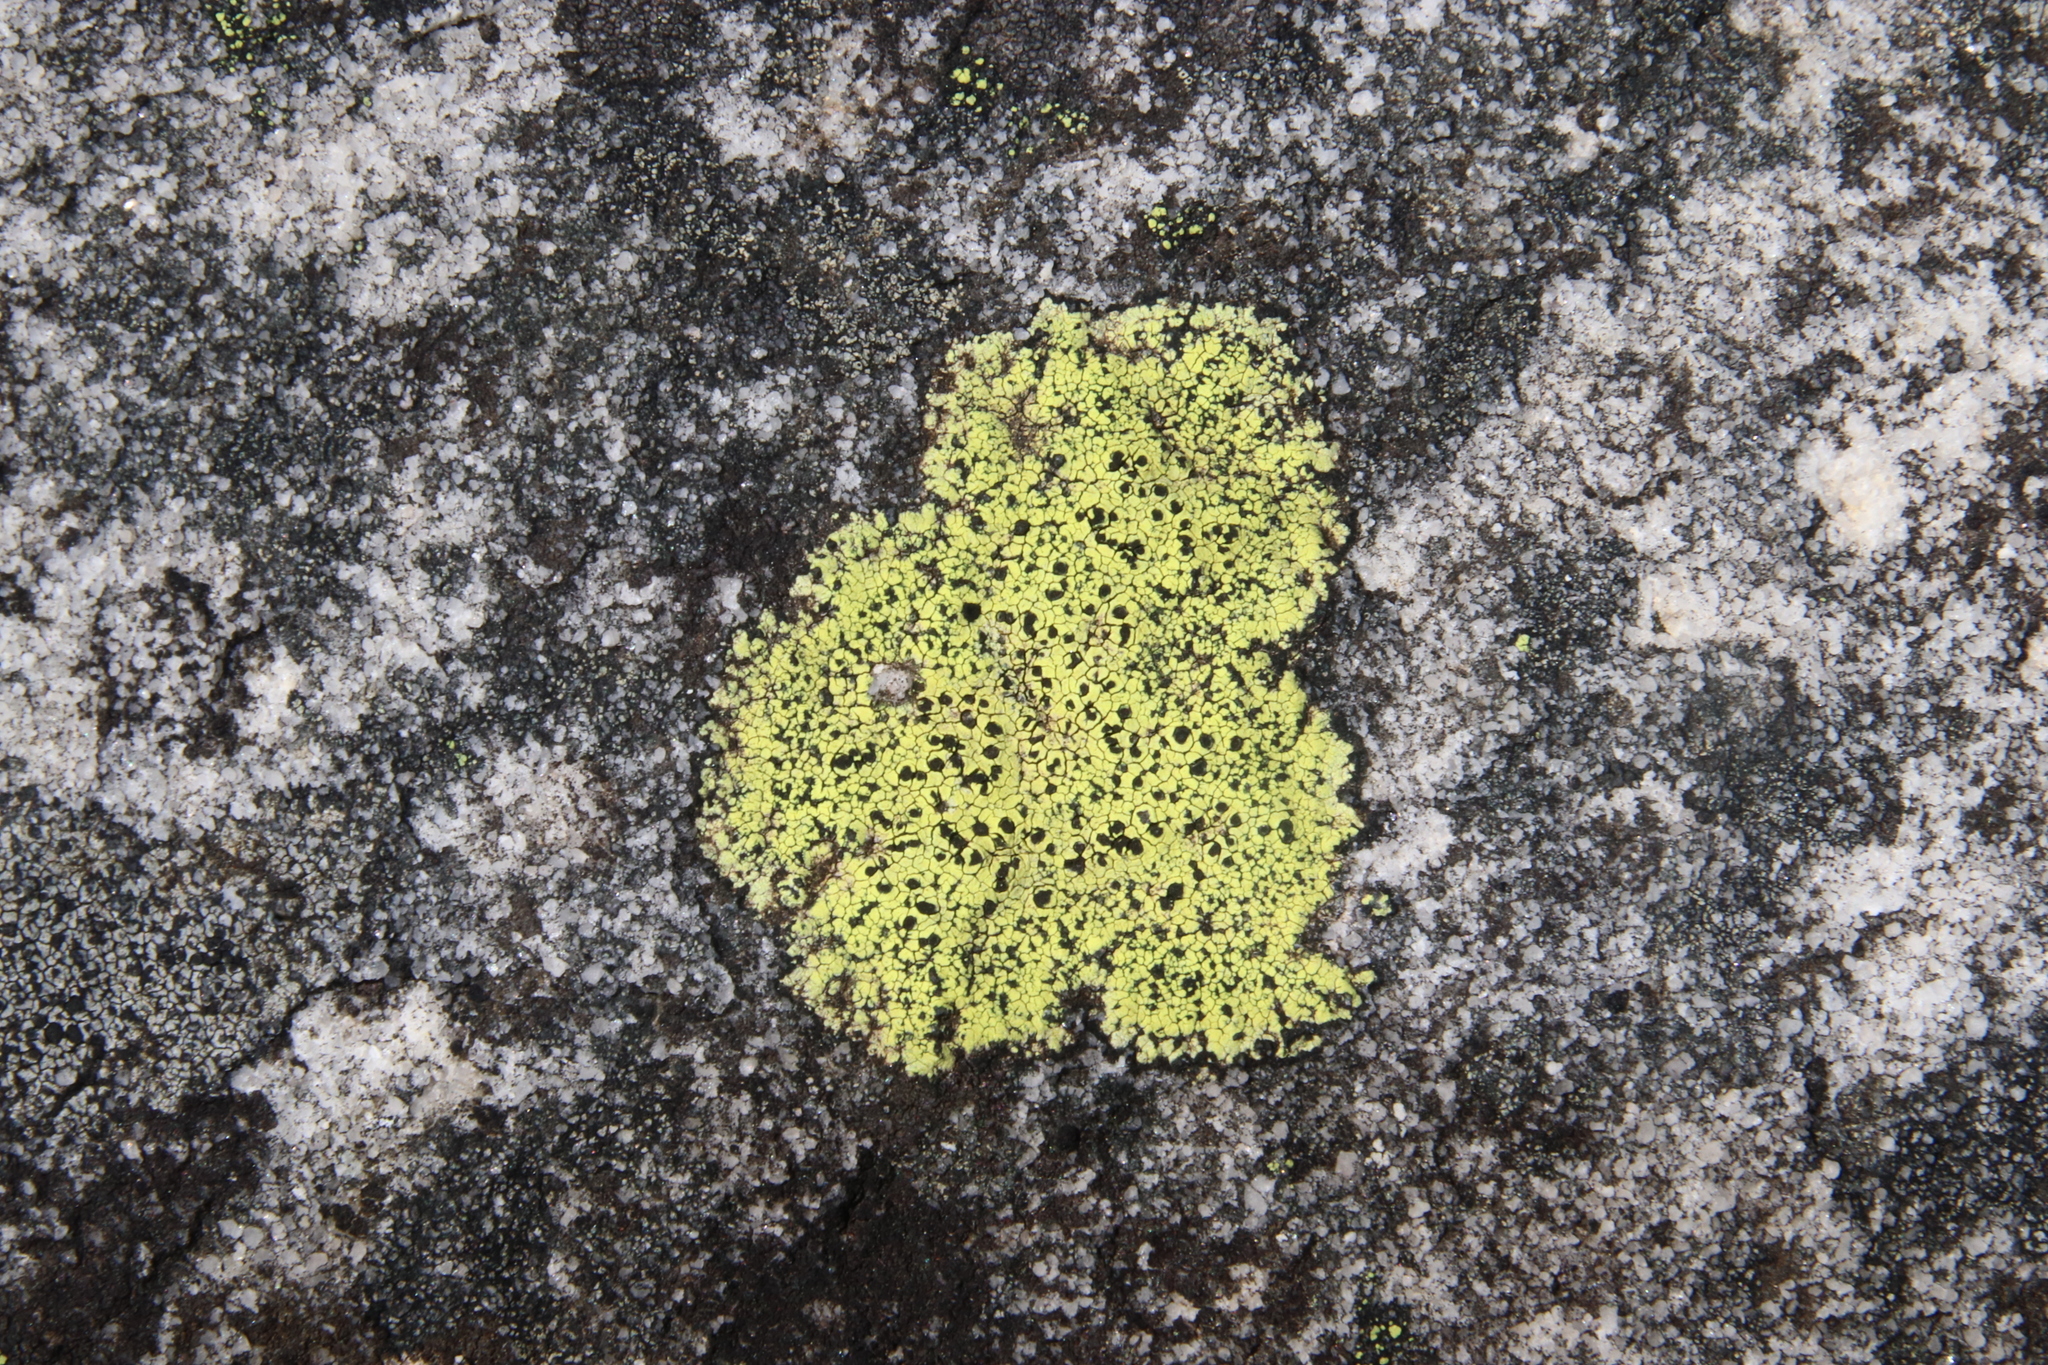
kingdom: Fungi
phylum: Ascomycota
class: Lecanoromycetes
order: Rhizocarpales
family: Rhizocarpaceae
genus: Rhizocarpon
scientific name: Rhizocarpon lecanorinum
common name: Crescent map lichen
